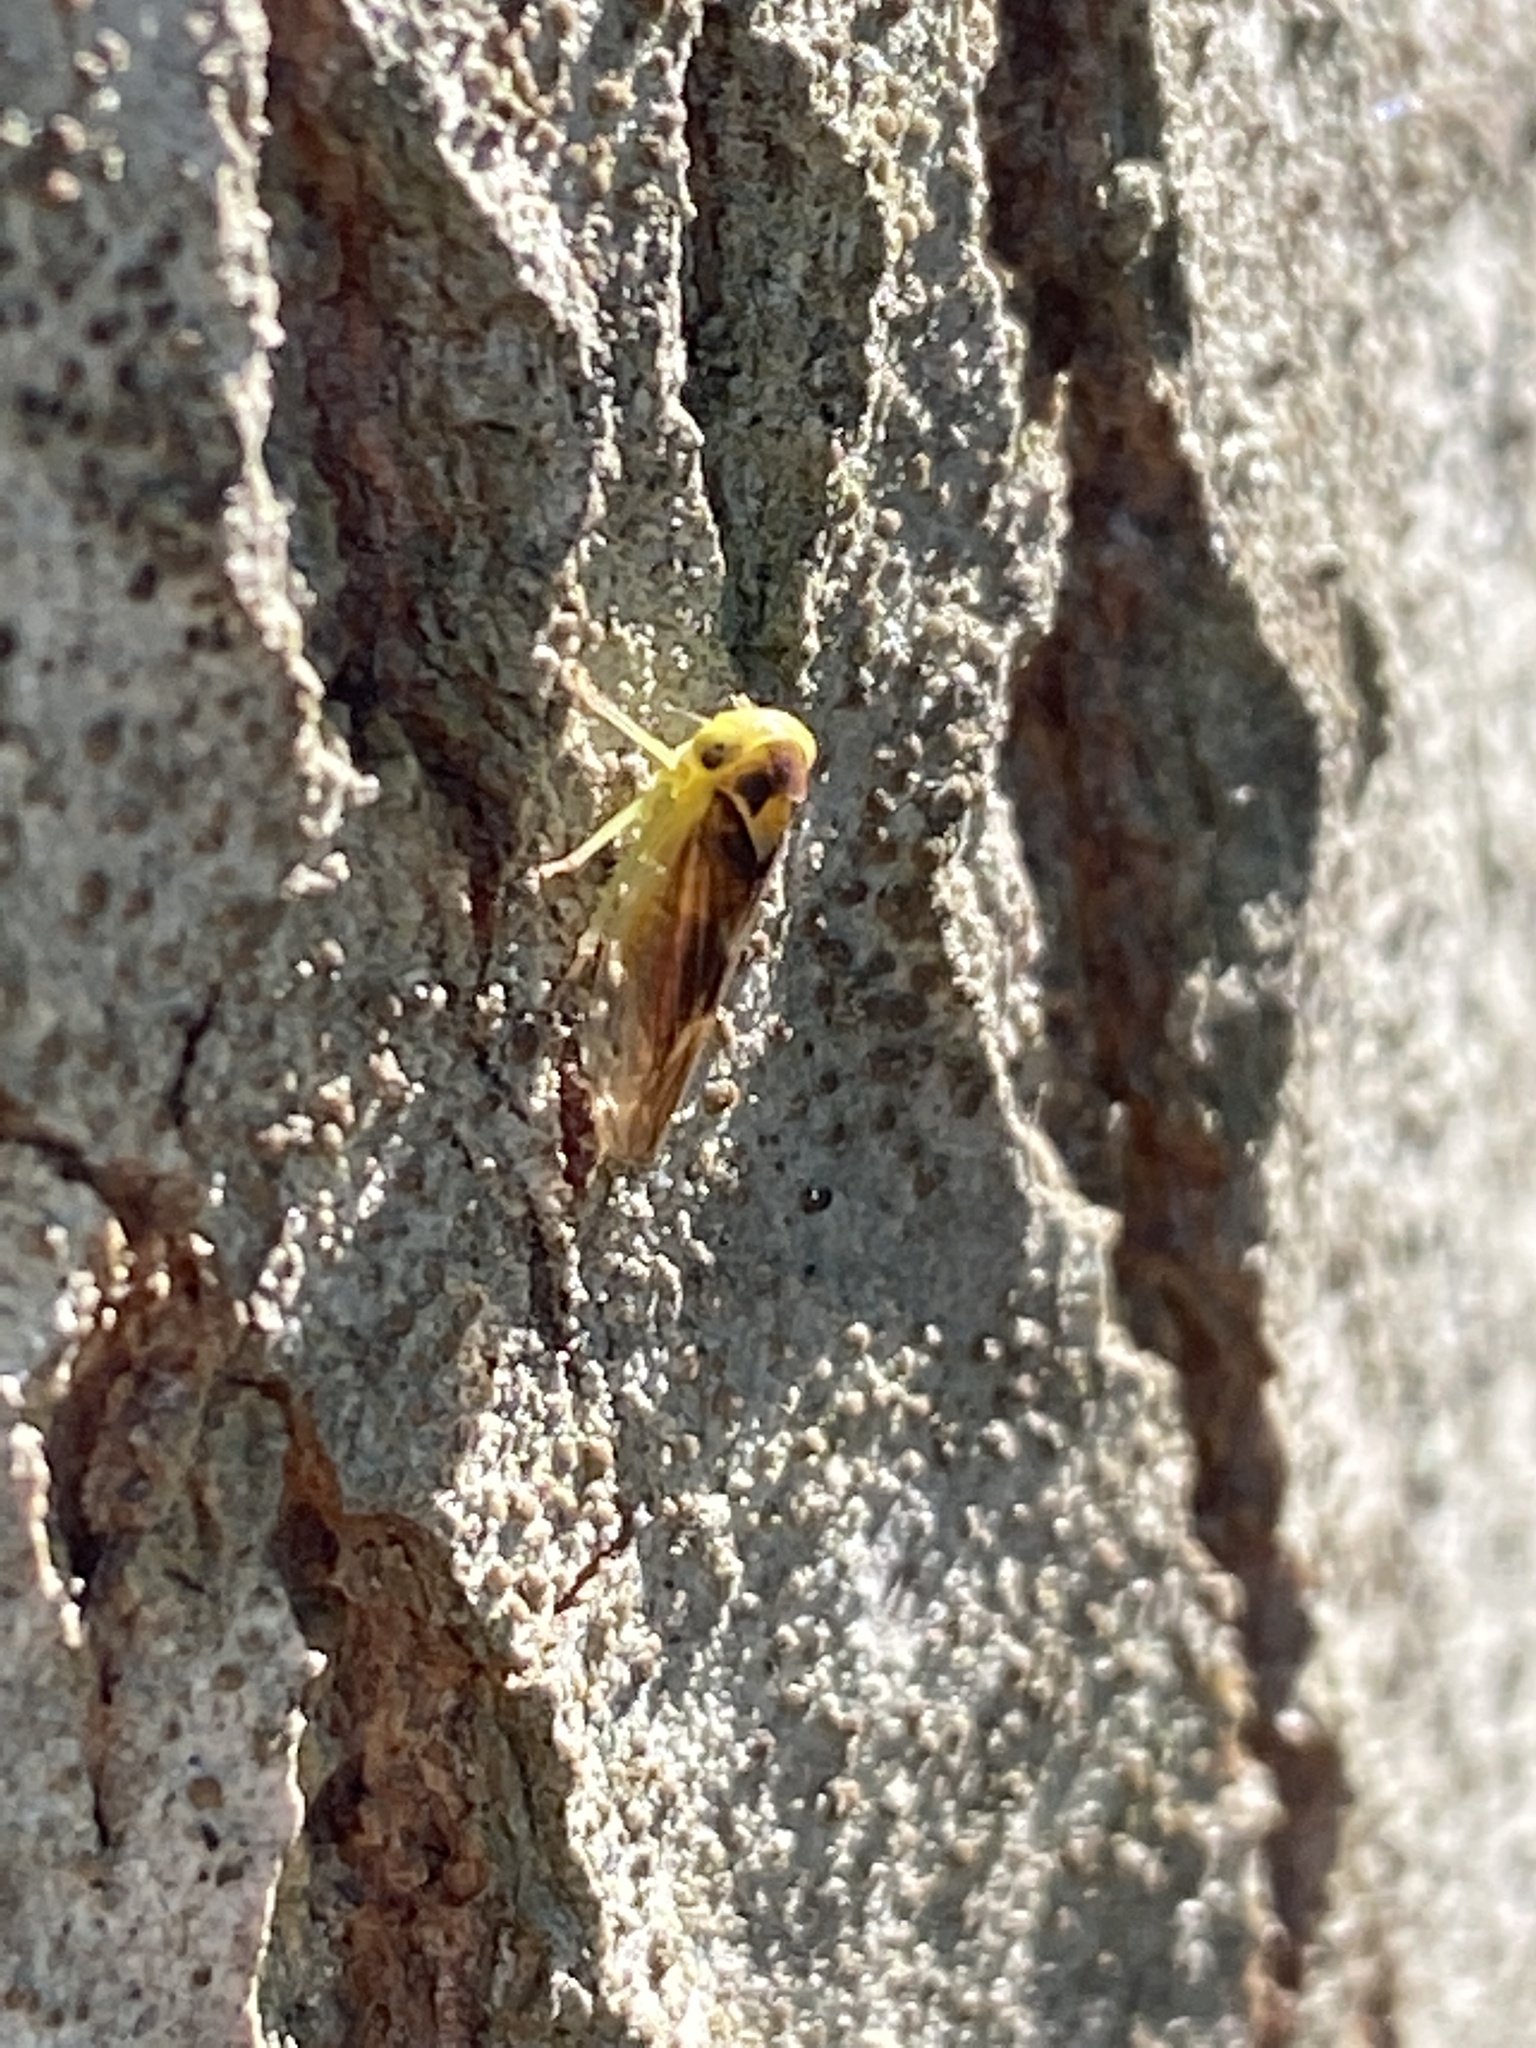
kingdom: Animalia
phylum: Arthropoda
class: Insecta
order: Hemiptera
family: Cicadellidae
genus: Populicerus
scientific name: Populicerus populi
